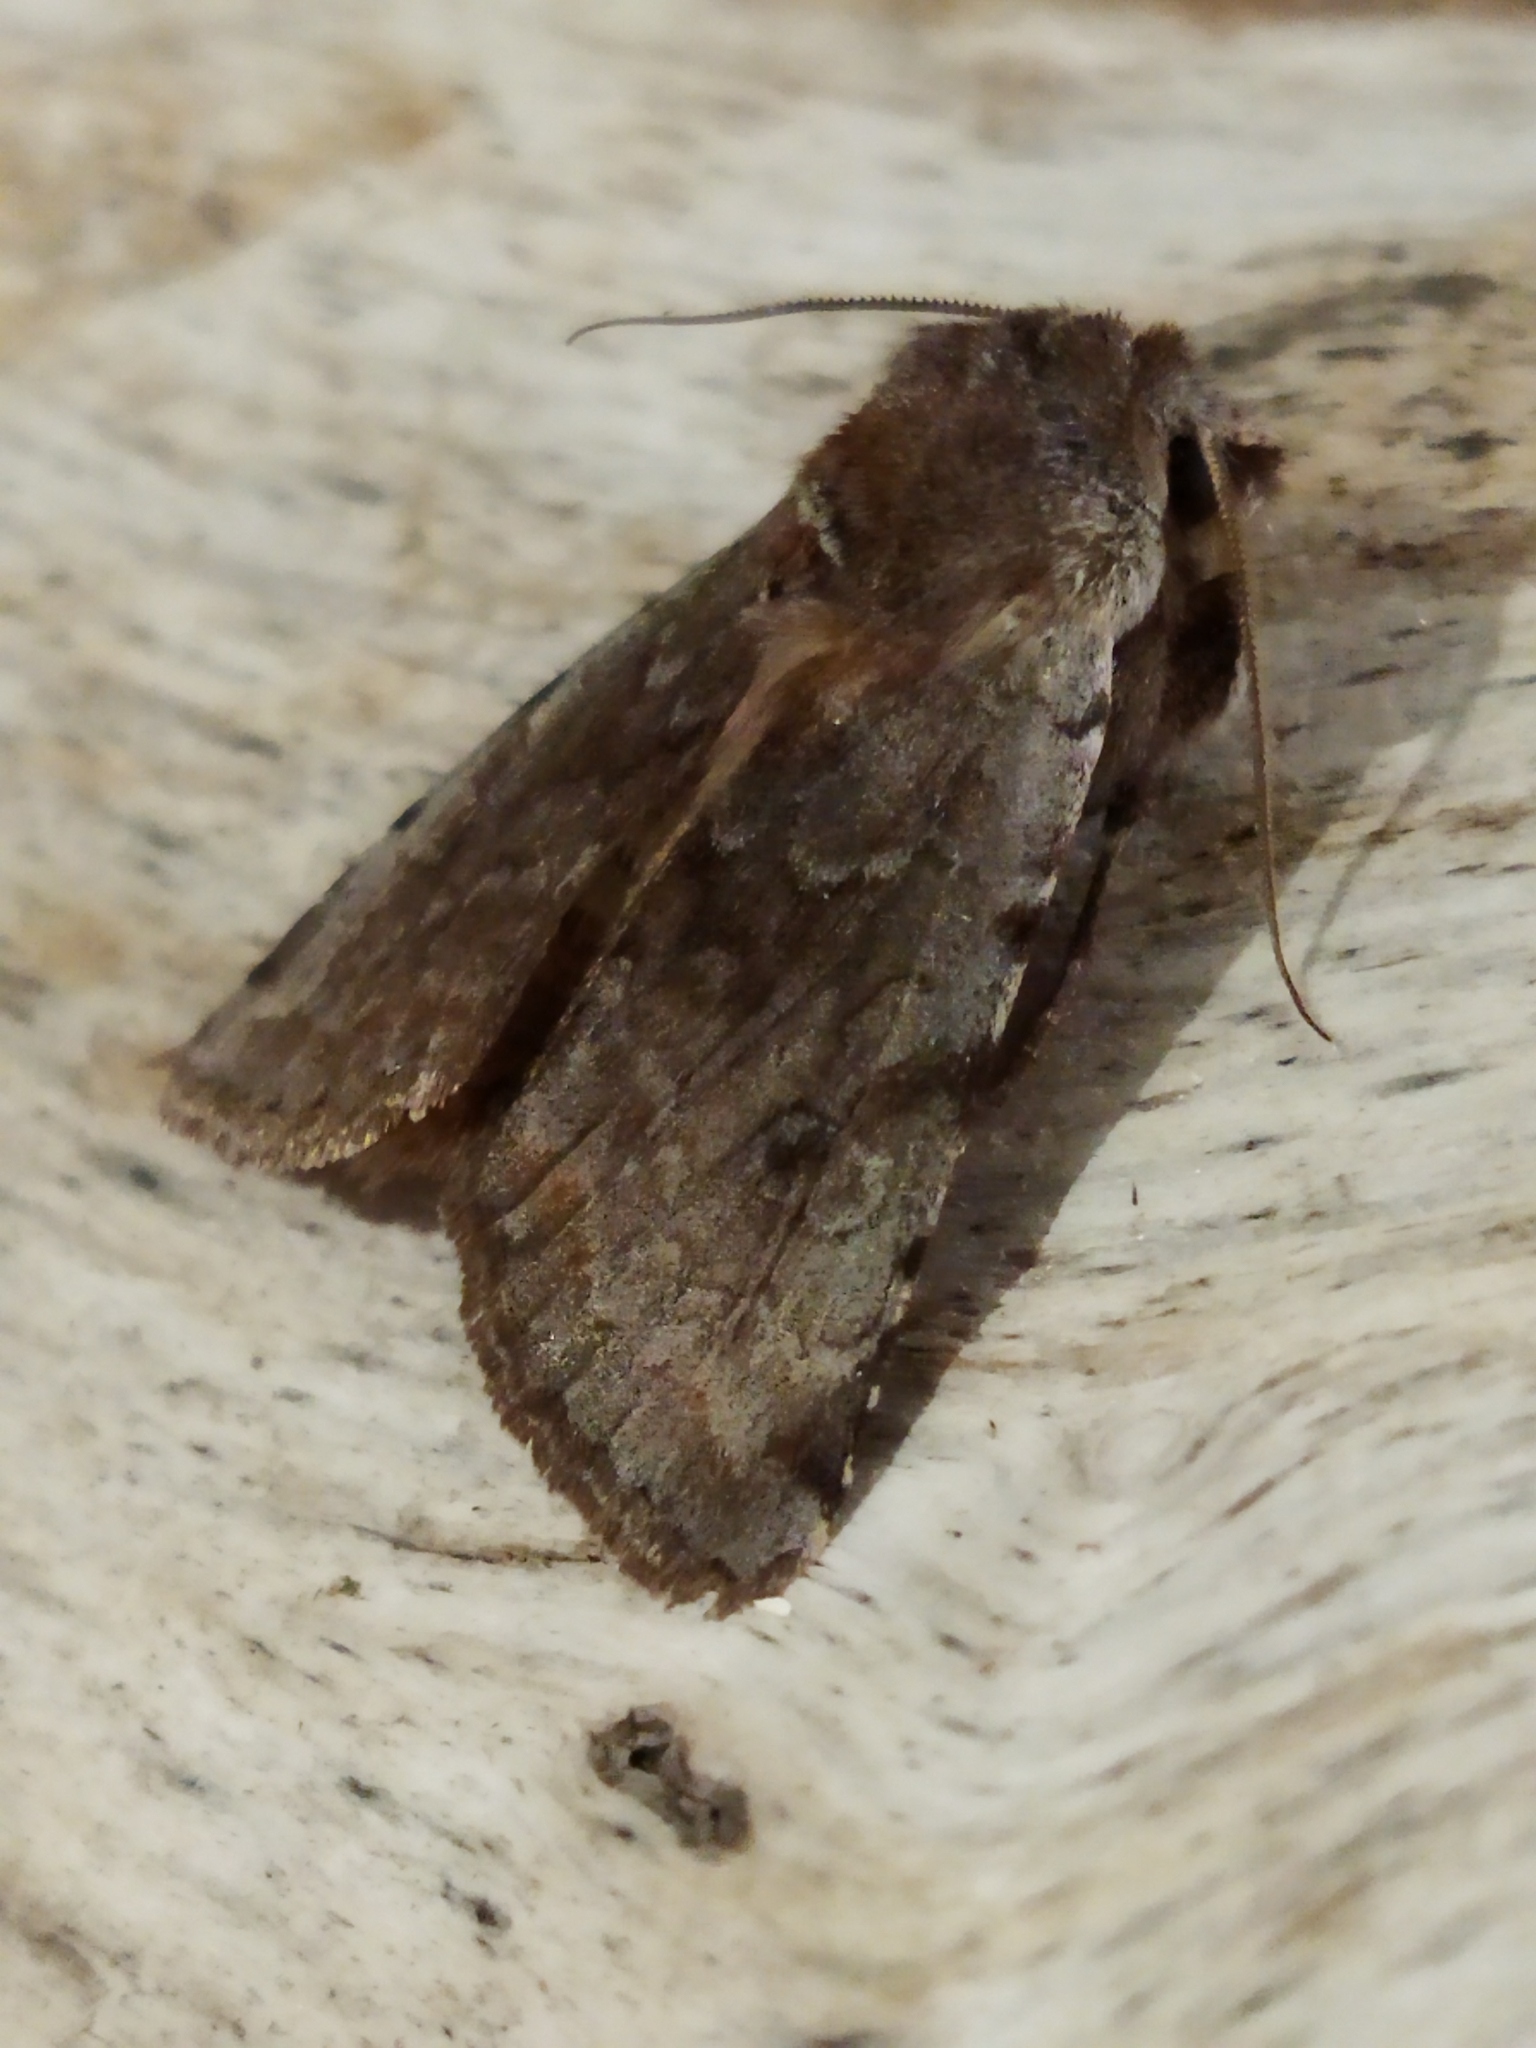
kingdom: Animalia
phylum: Arthropoda
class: Insecta
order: Lepidoptera
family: Noctuidae
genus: Cerastis
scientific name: Cerastis rubricosa
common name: Red chestnut
